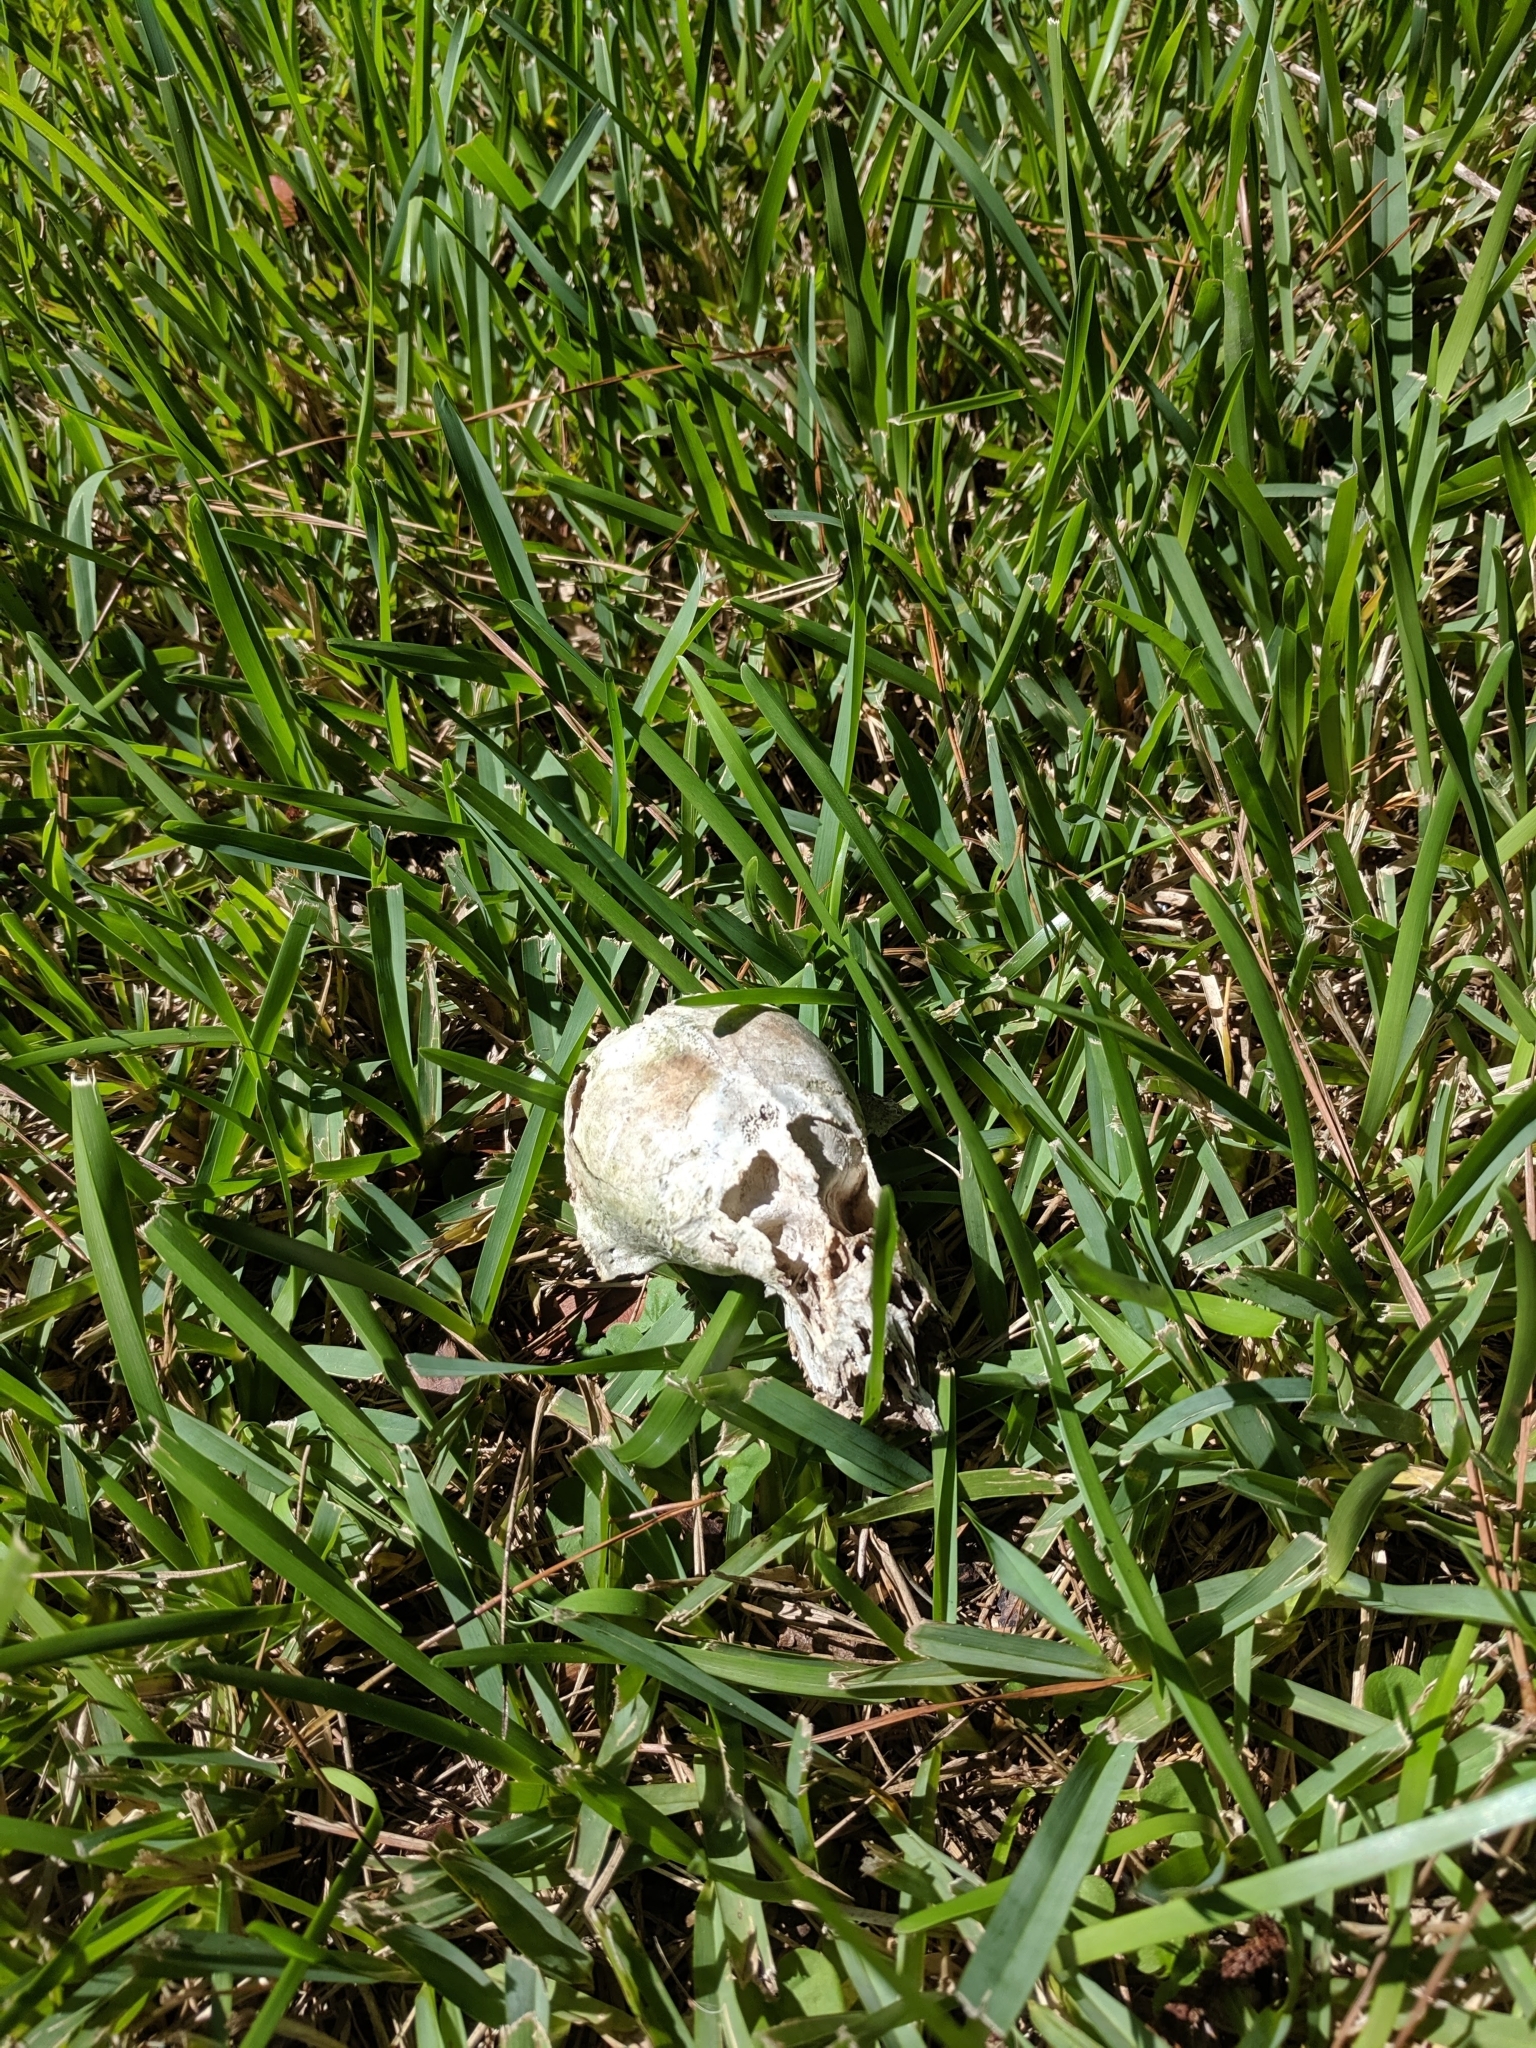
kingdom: Animalia
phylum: Chordata
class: Mammalia
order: Carnivora
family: Procyonidae
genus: Procyon
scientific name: Procyon lotor
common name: Raccoon
